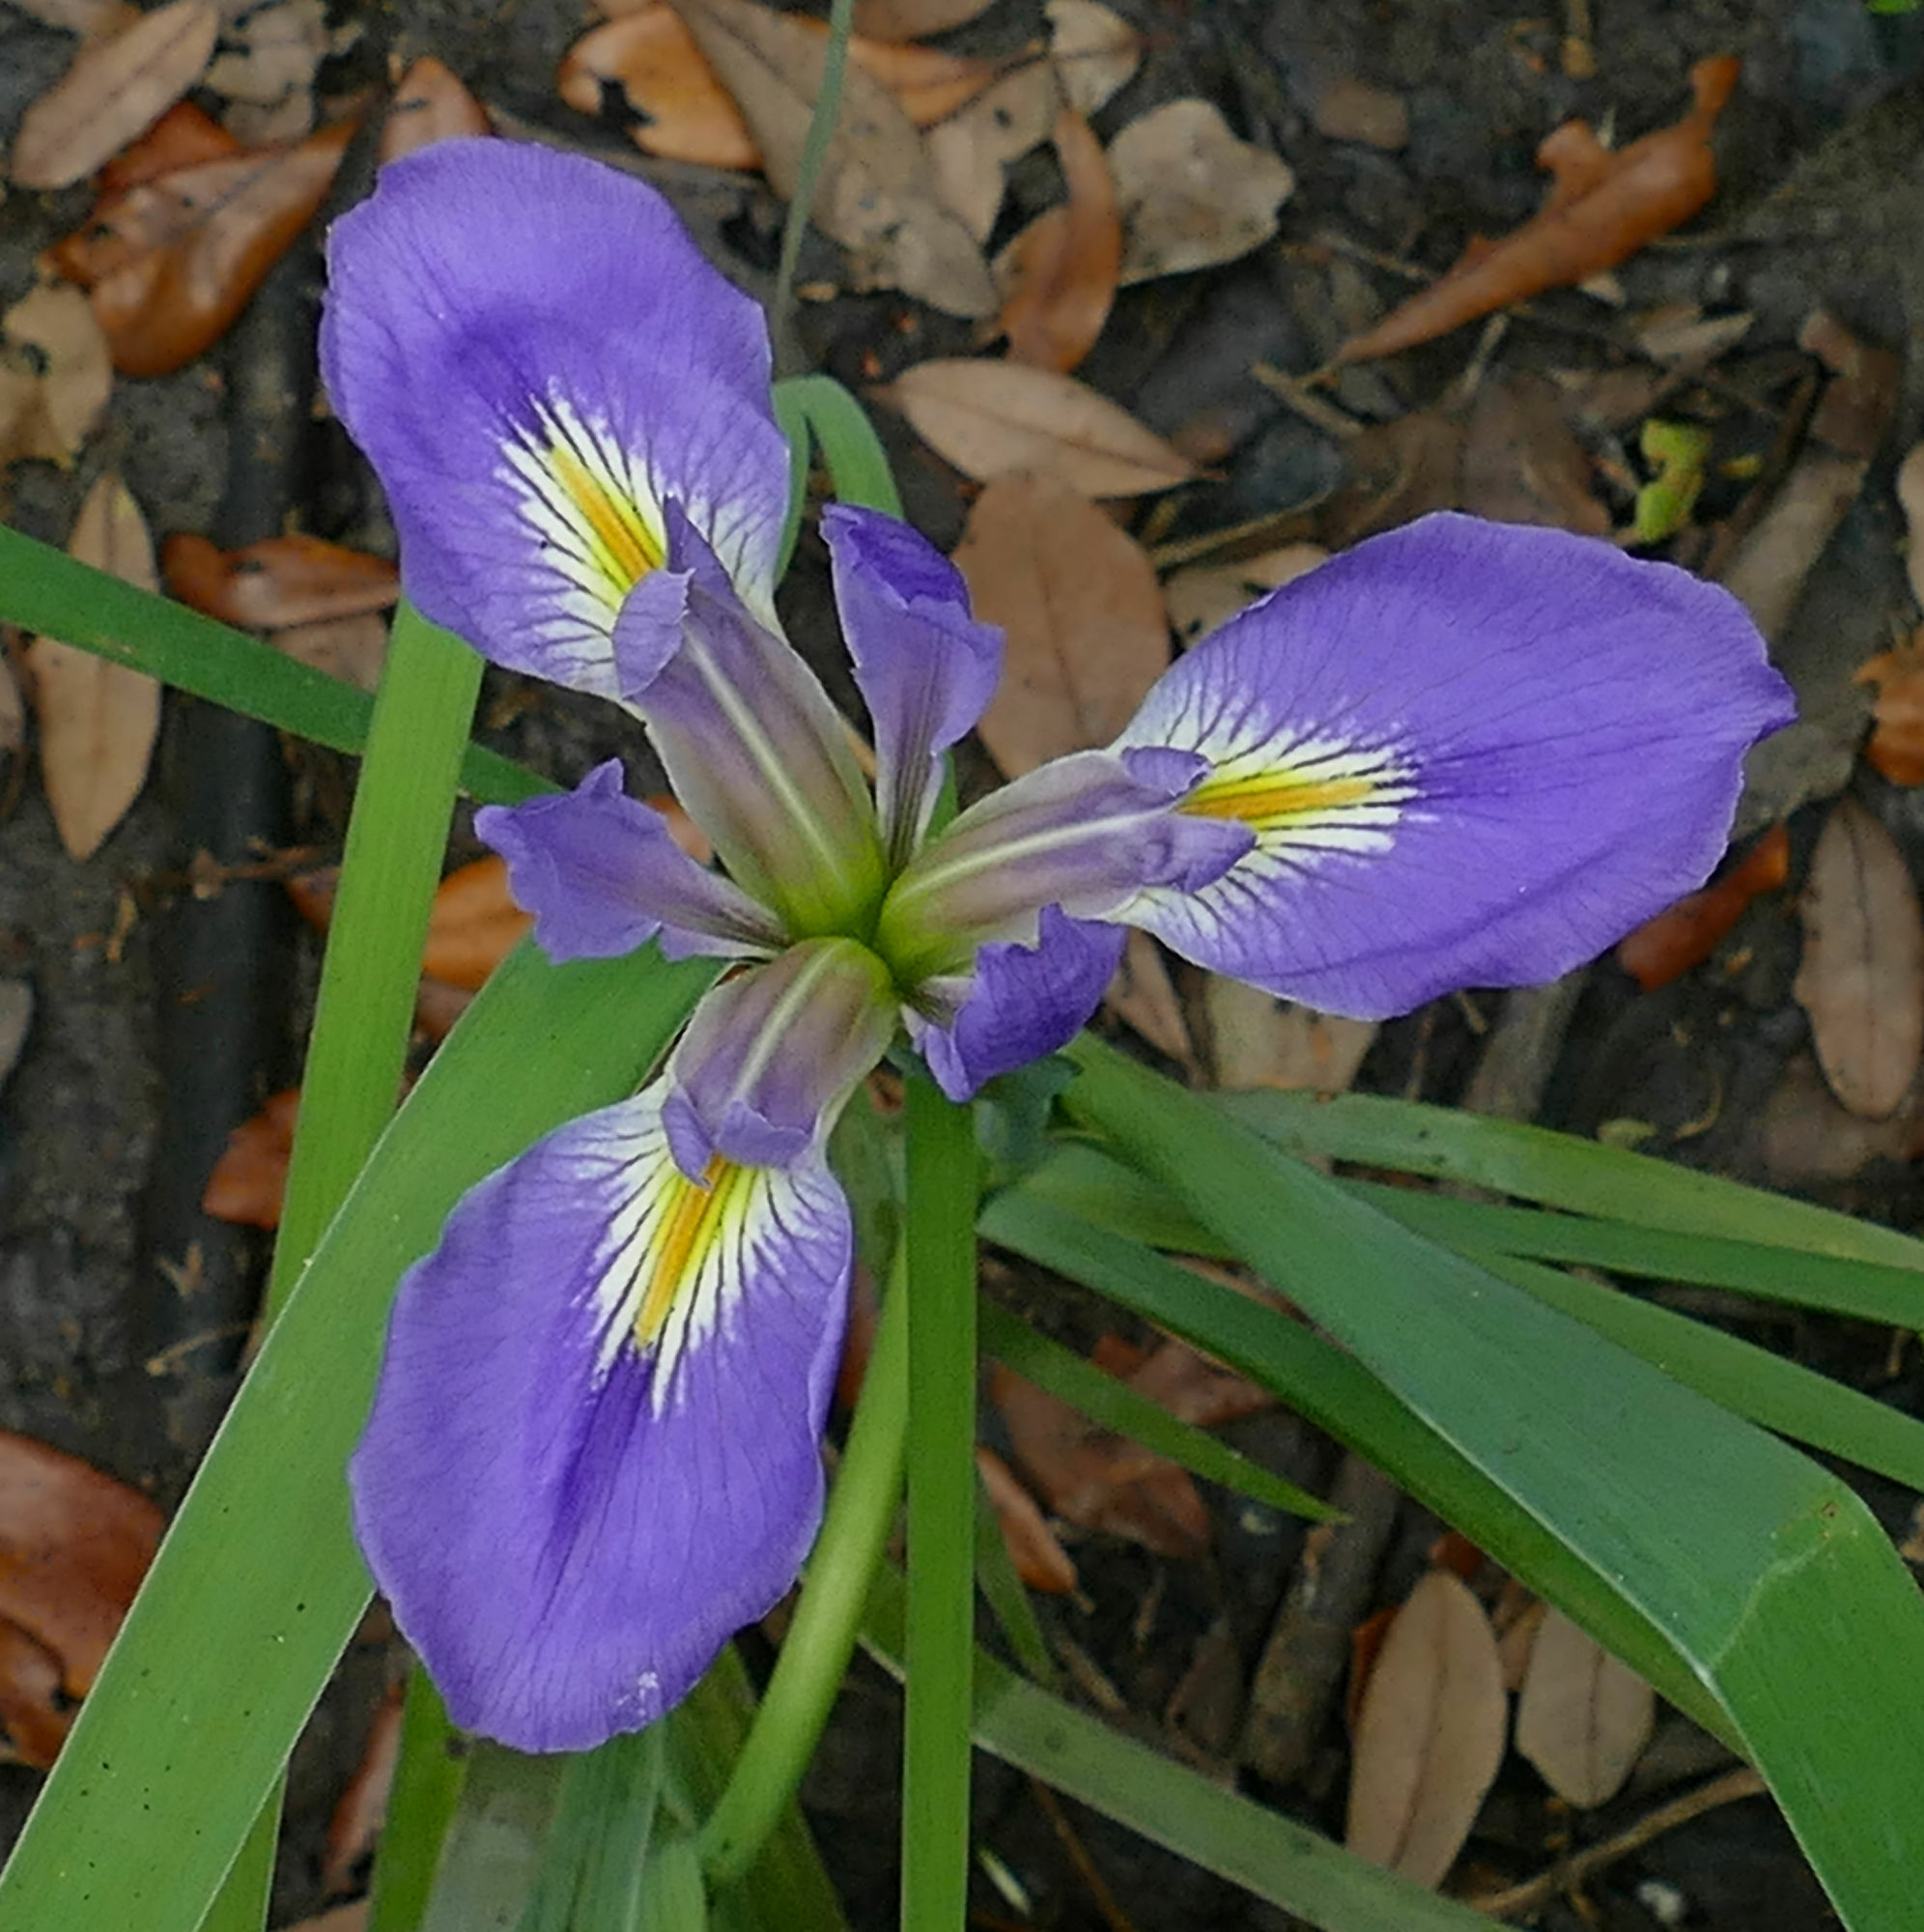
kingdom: Plantae
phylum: Tracheophyta
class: Liliopsida
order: Asparagales
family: Iridaceae
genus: Iris
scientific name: Iris brevicaulis
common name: Zigzag iris
